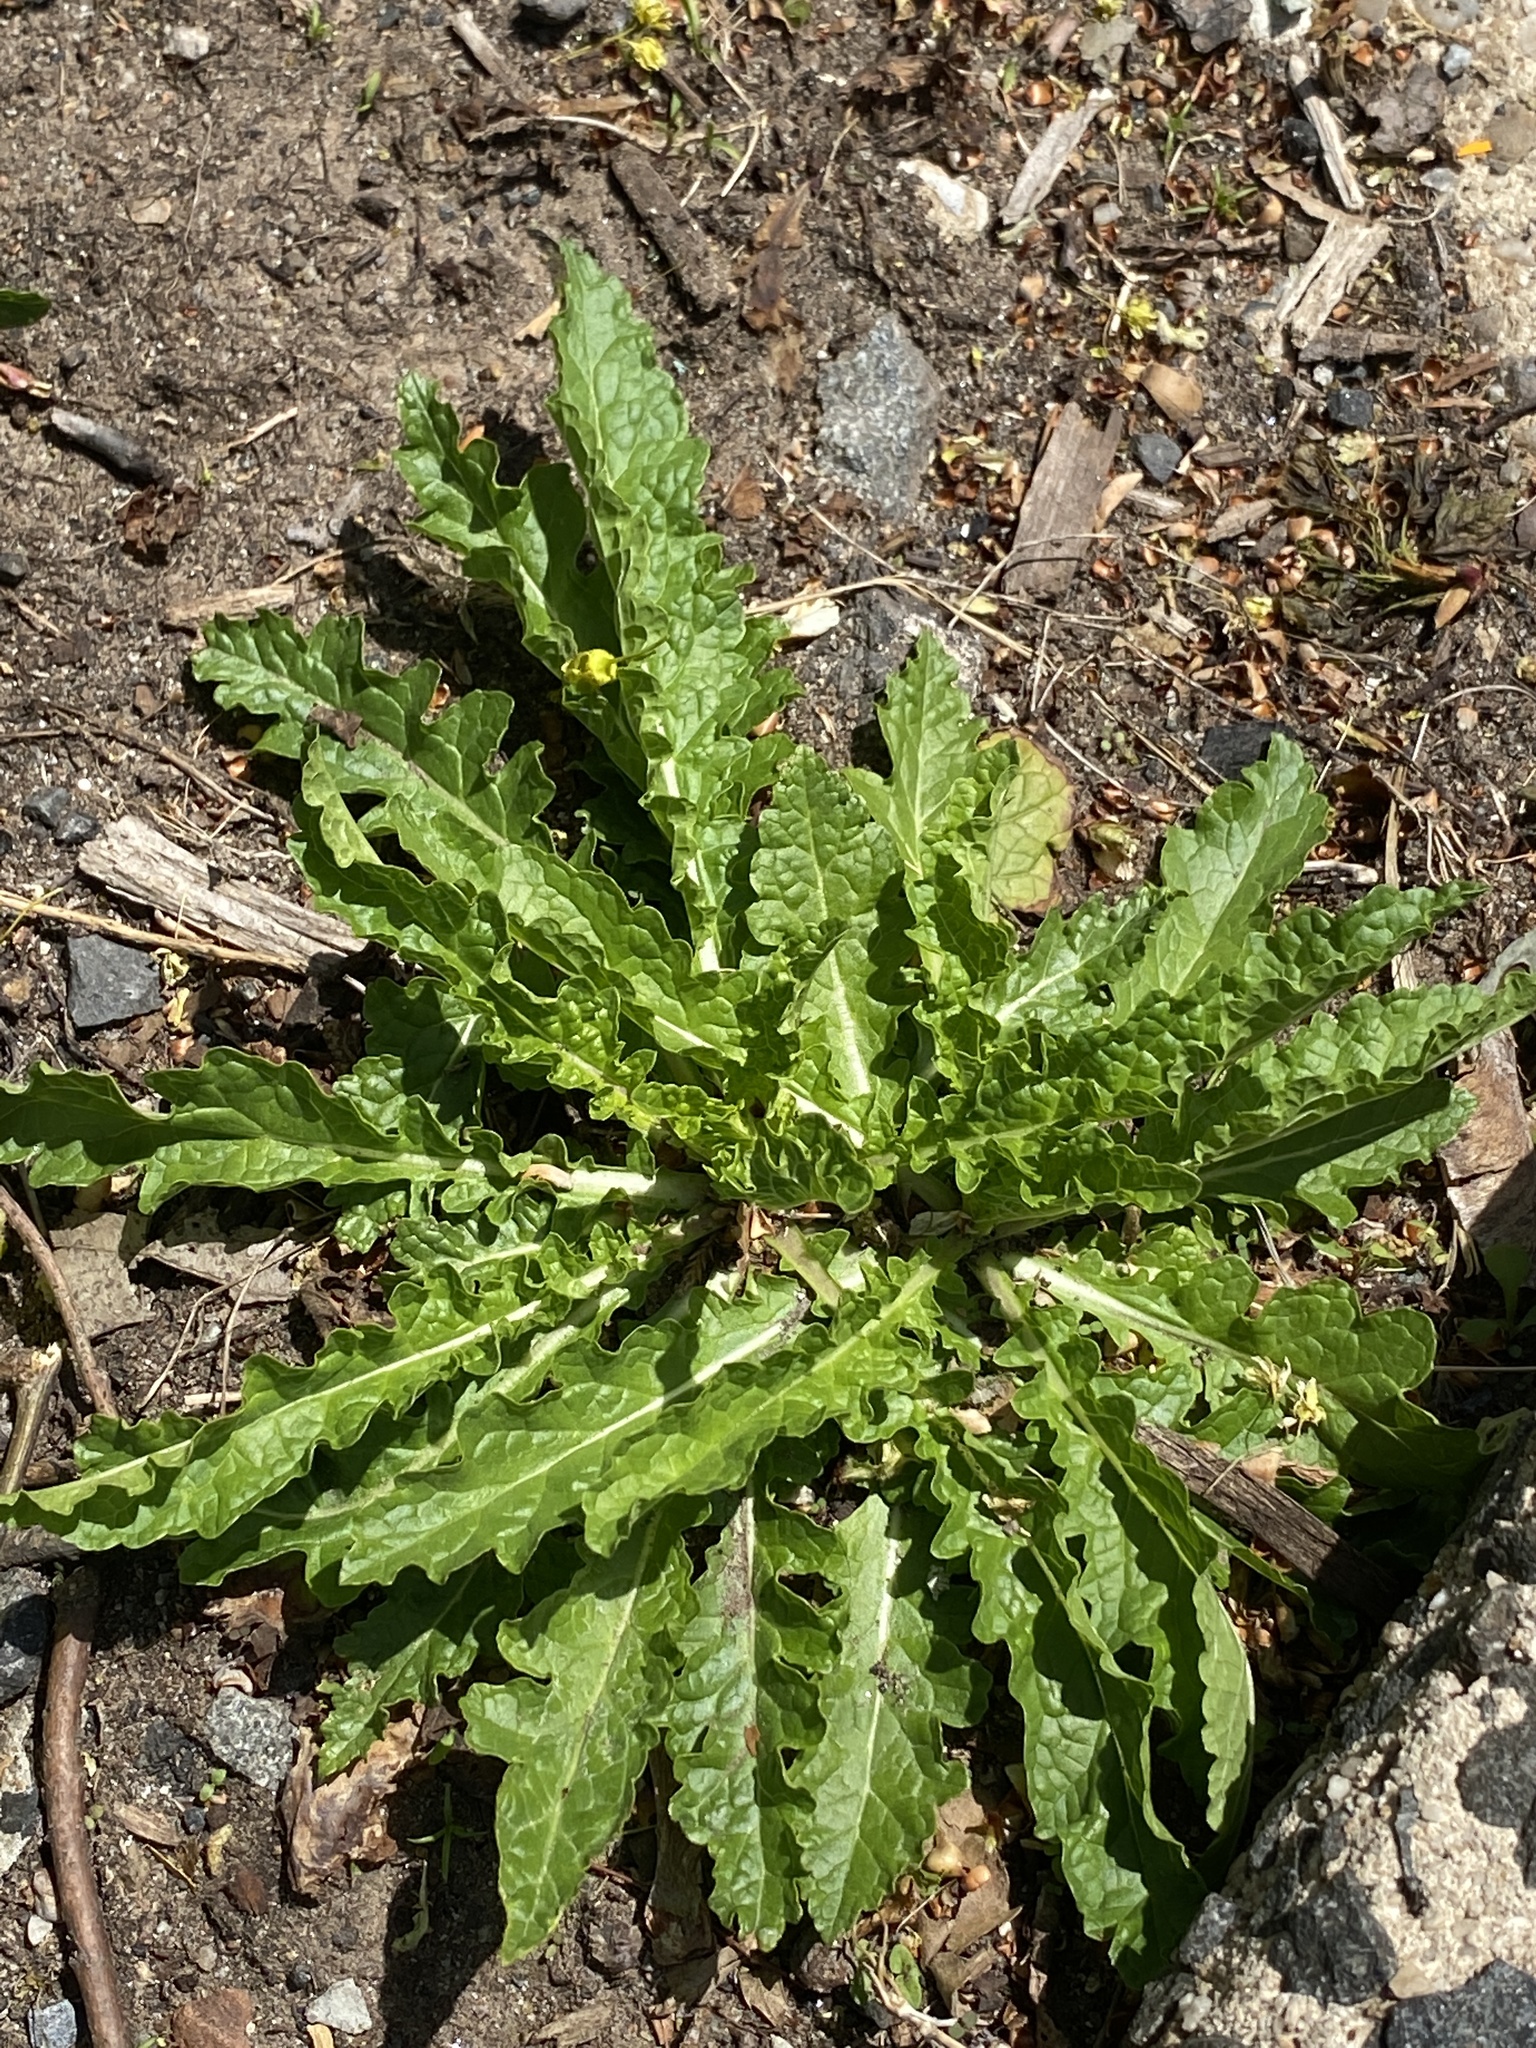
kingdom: Plantae
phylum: Tracheophyta
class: Magnoliopsida
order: Lamiales
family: Scrophulariaceae
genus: Verbascum
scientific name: Verbascum blattaria
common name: Moth mullein
